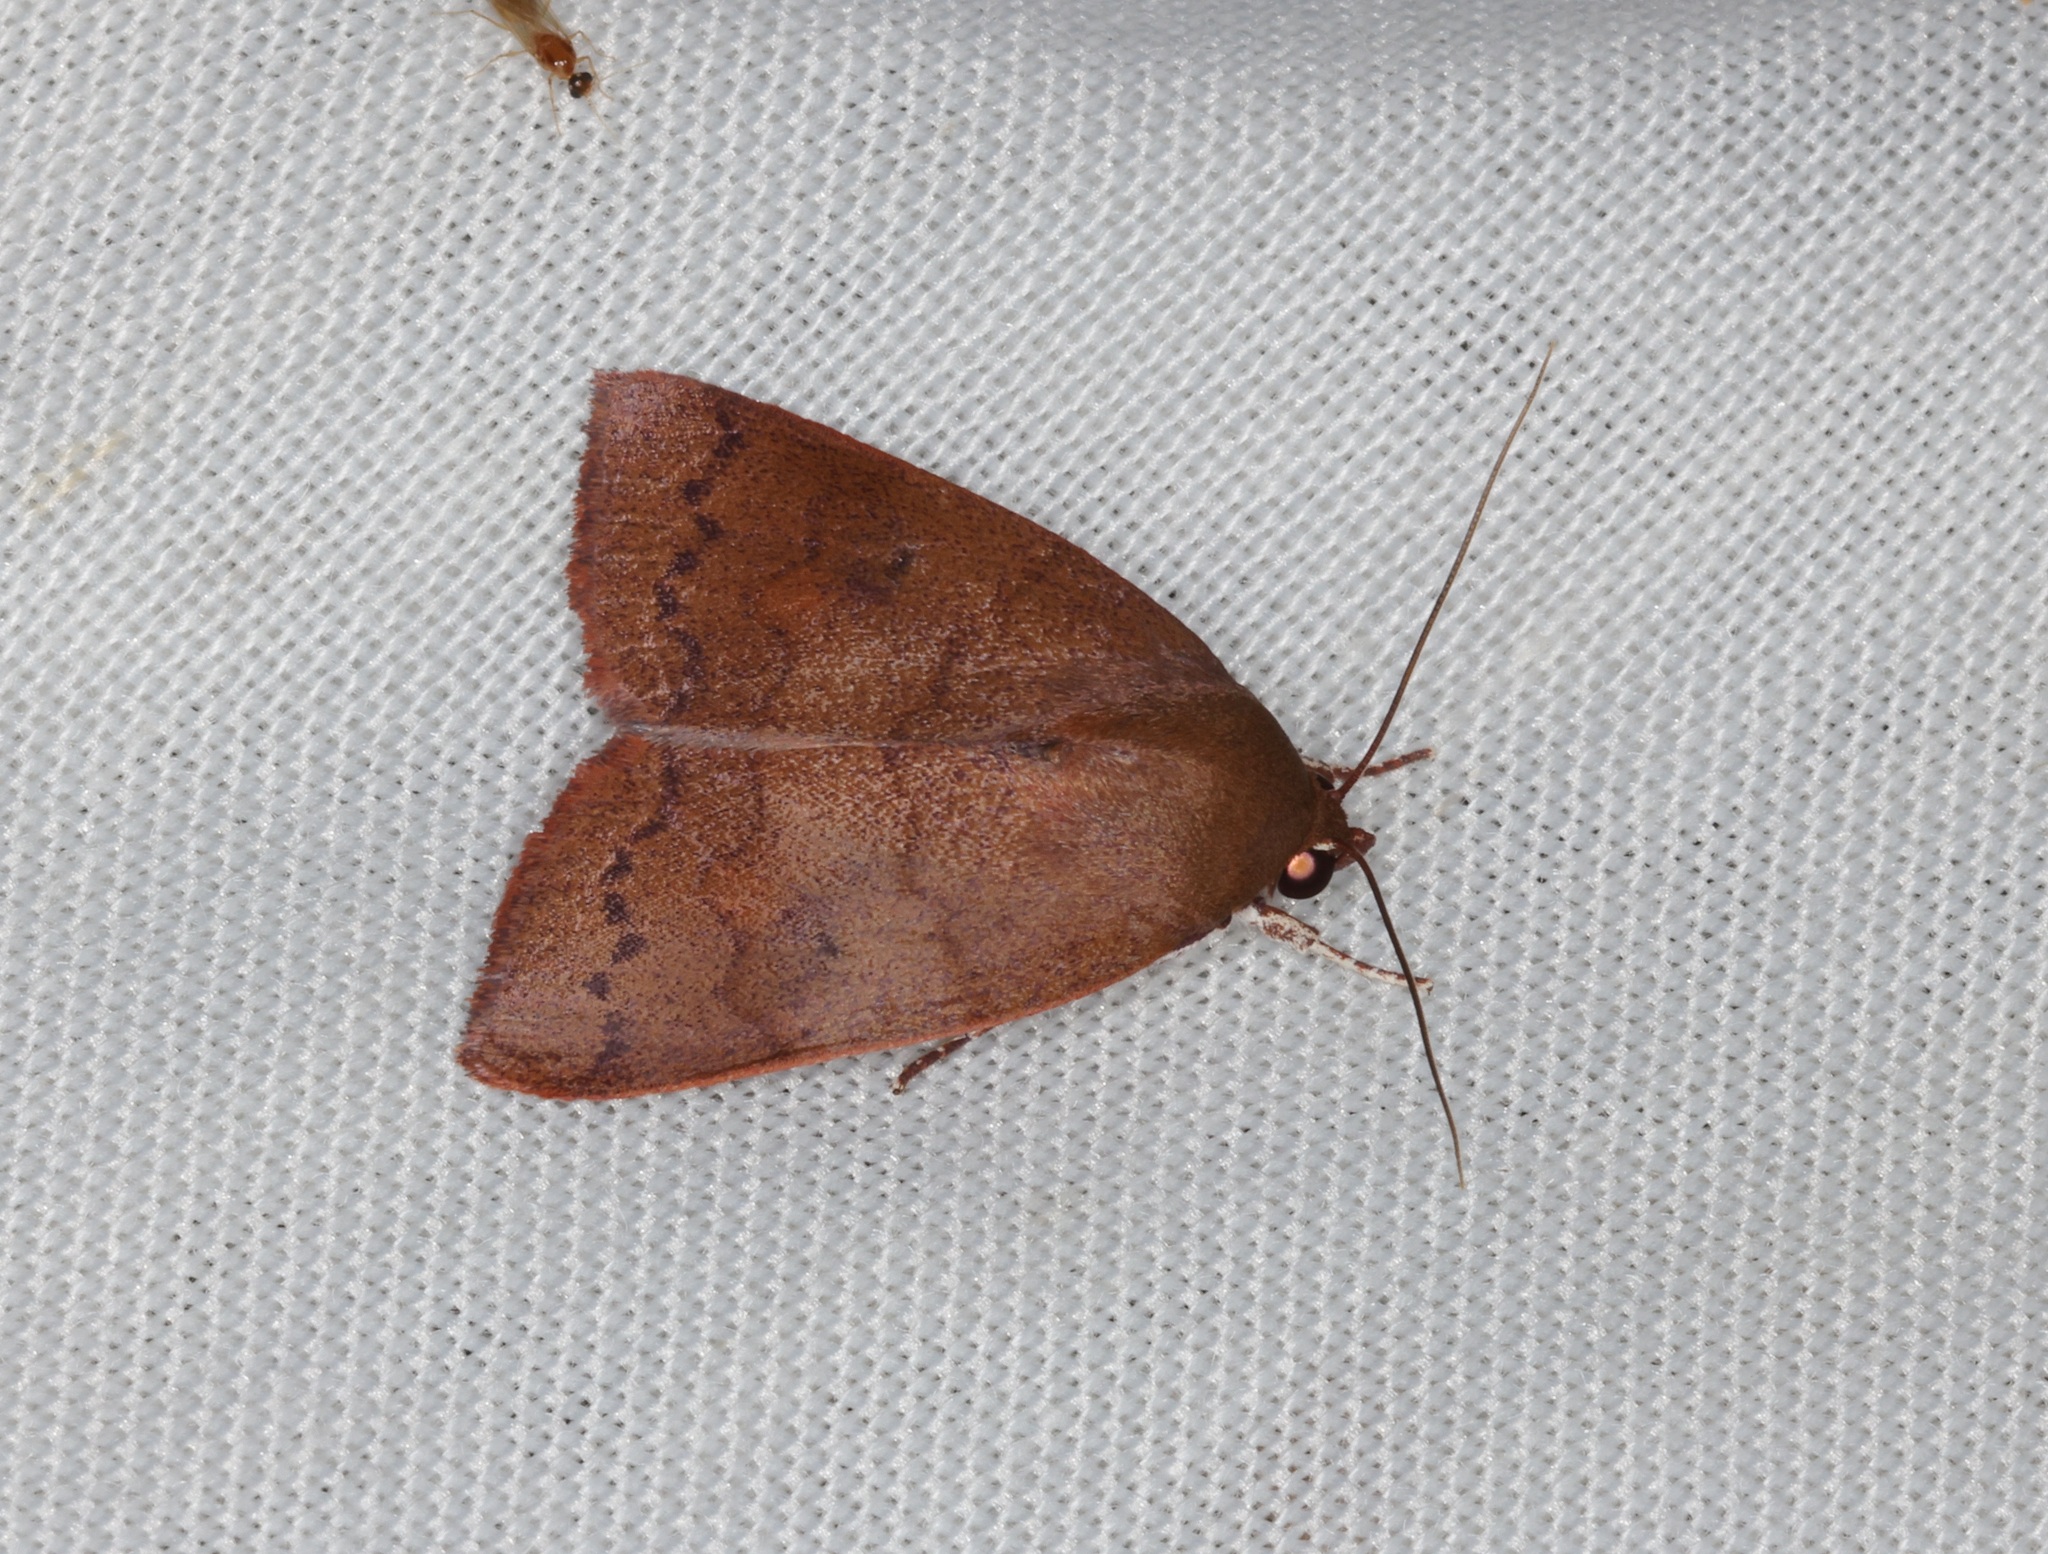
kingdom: Animalia
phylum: Arthropoda
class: Insecta
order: Lepidoptera
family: Nolidae
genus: Calymera
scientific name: Calymera
